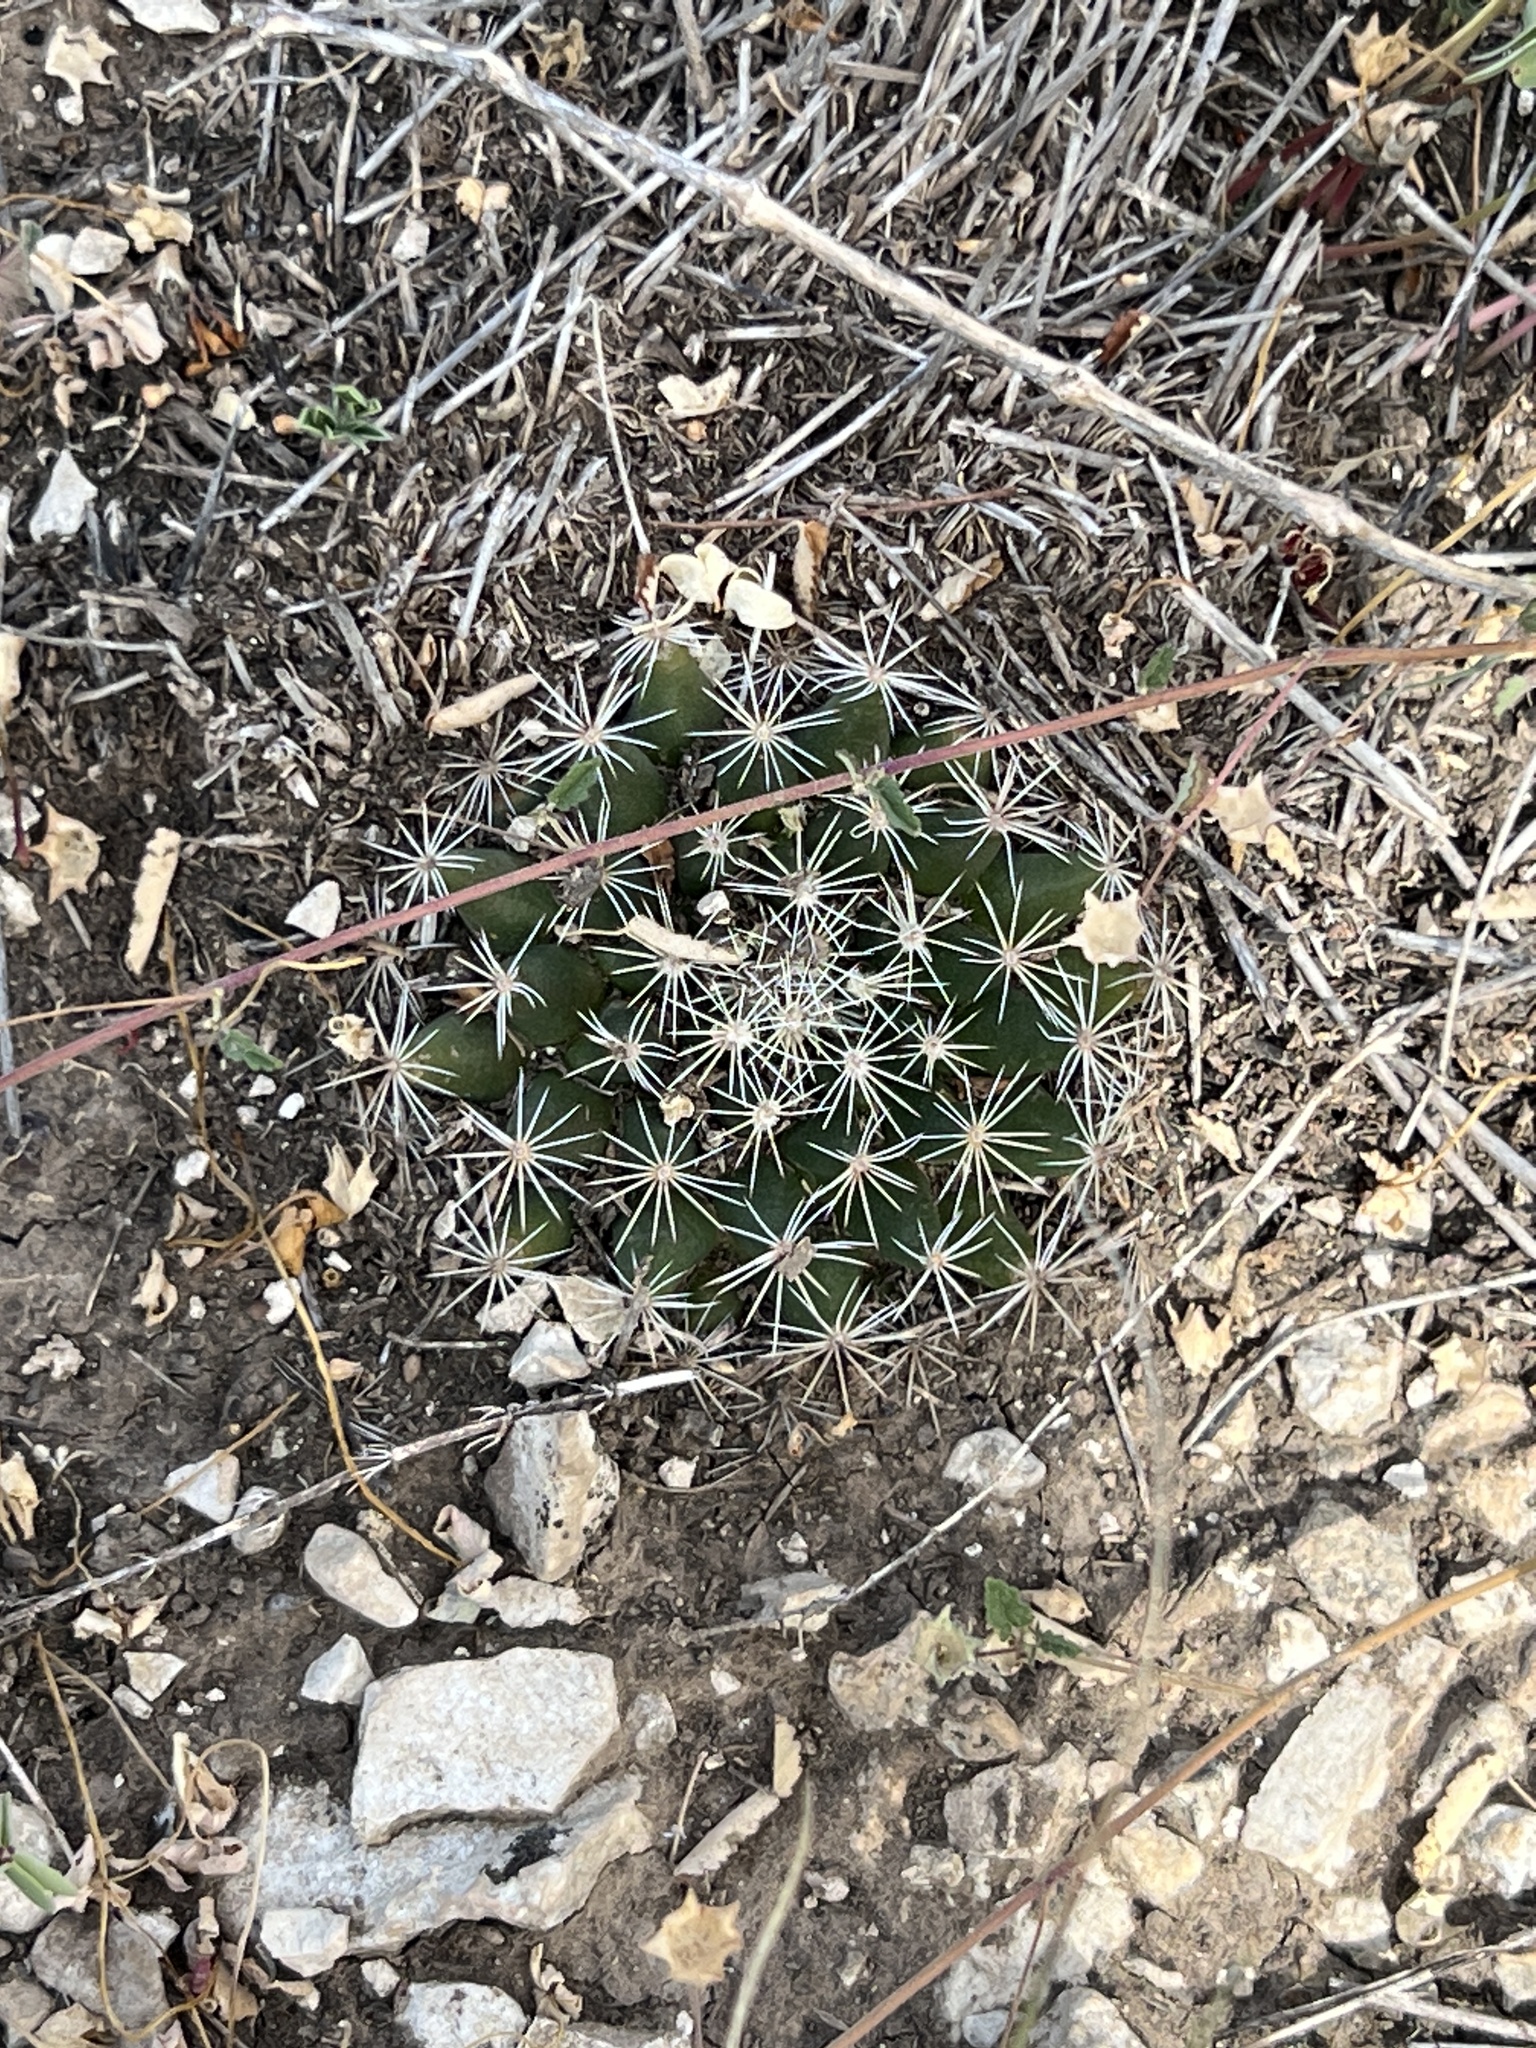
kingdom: Plantae
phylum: Tracheophyta
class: Magnoliopsida
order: Caryophyllales
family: Cactaceae
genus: Mammillaria
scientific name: Mammillaria heyderi
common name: Little nipple cactus
